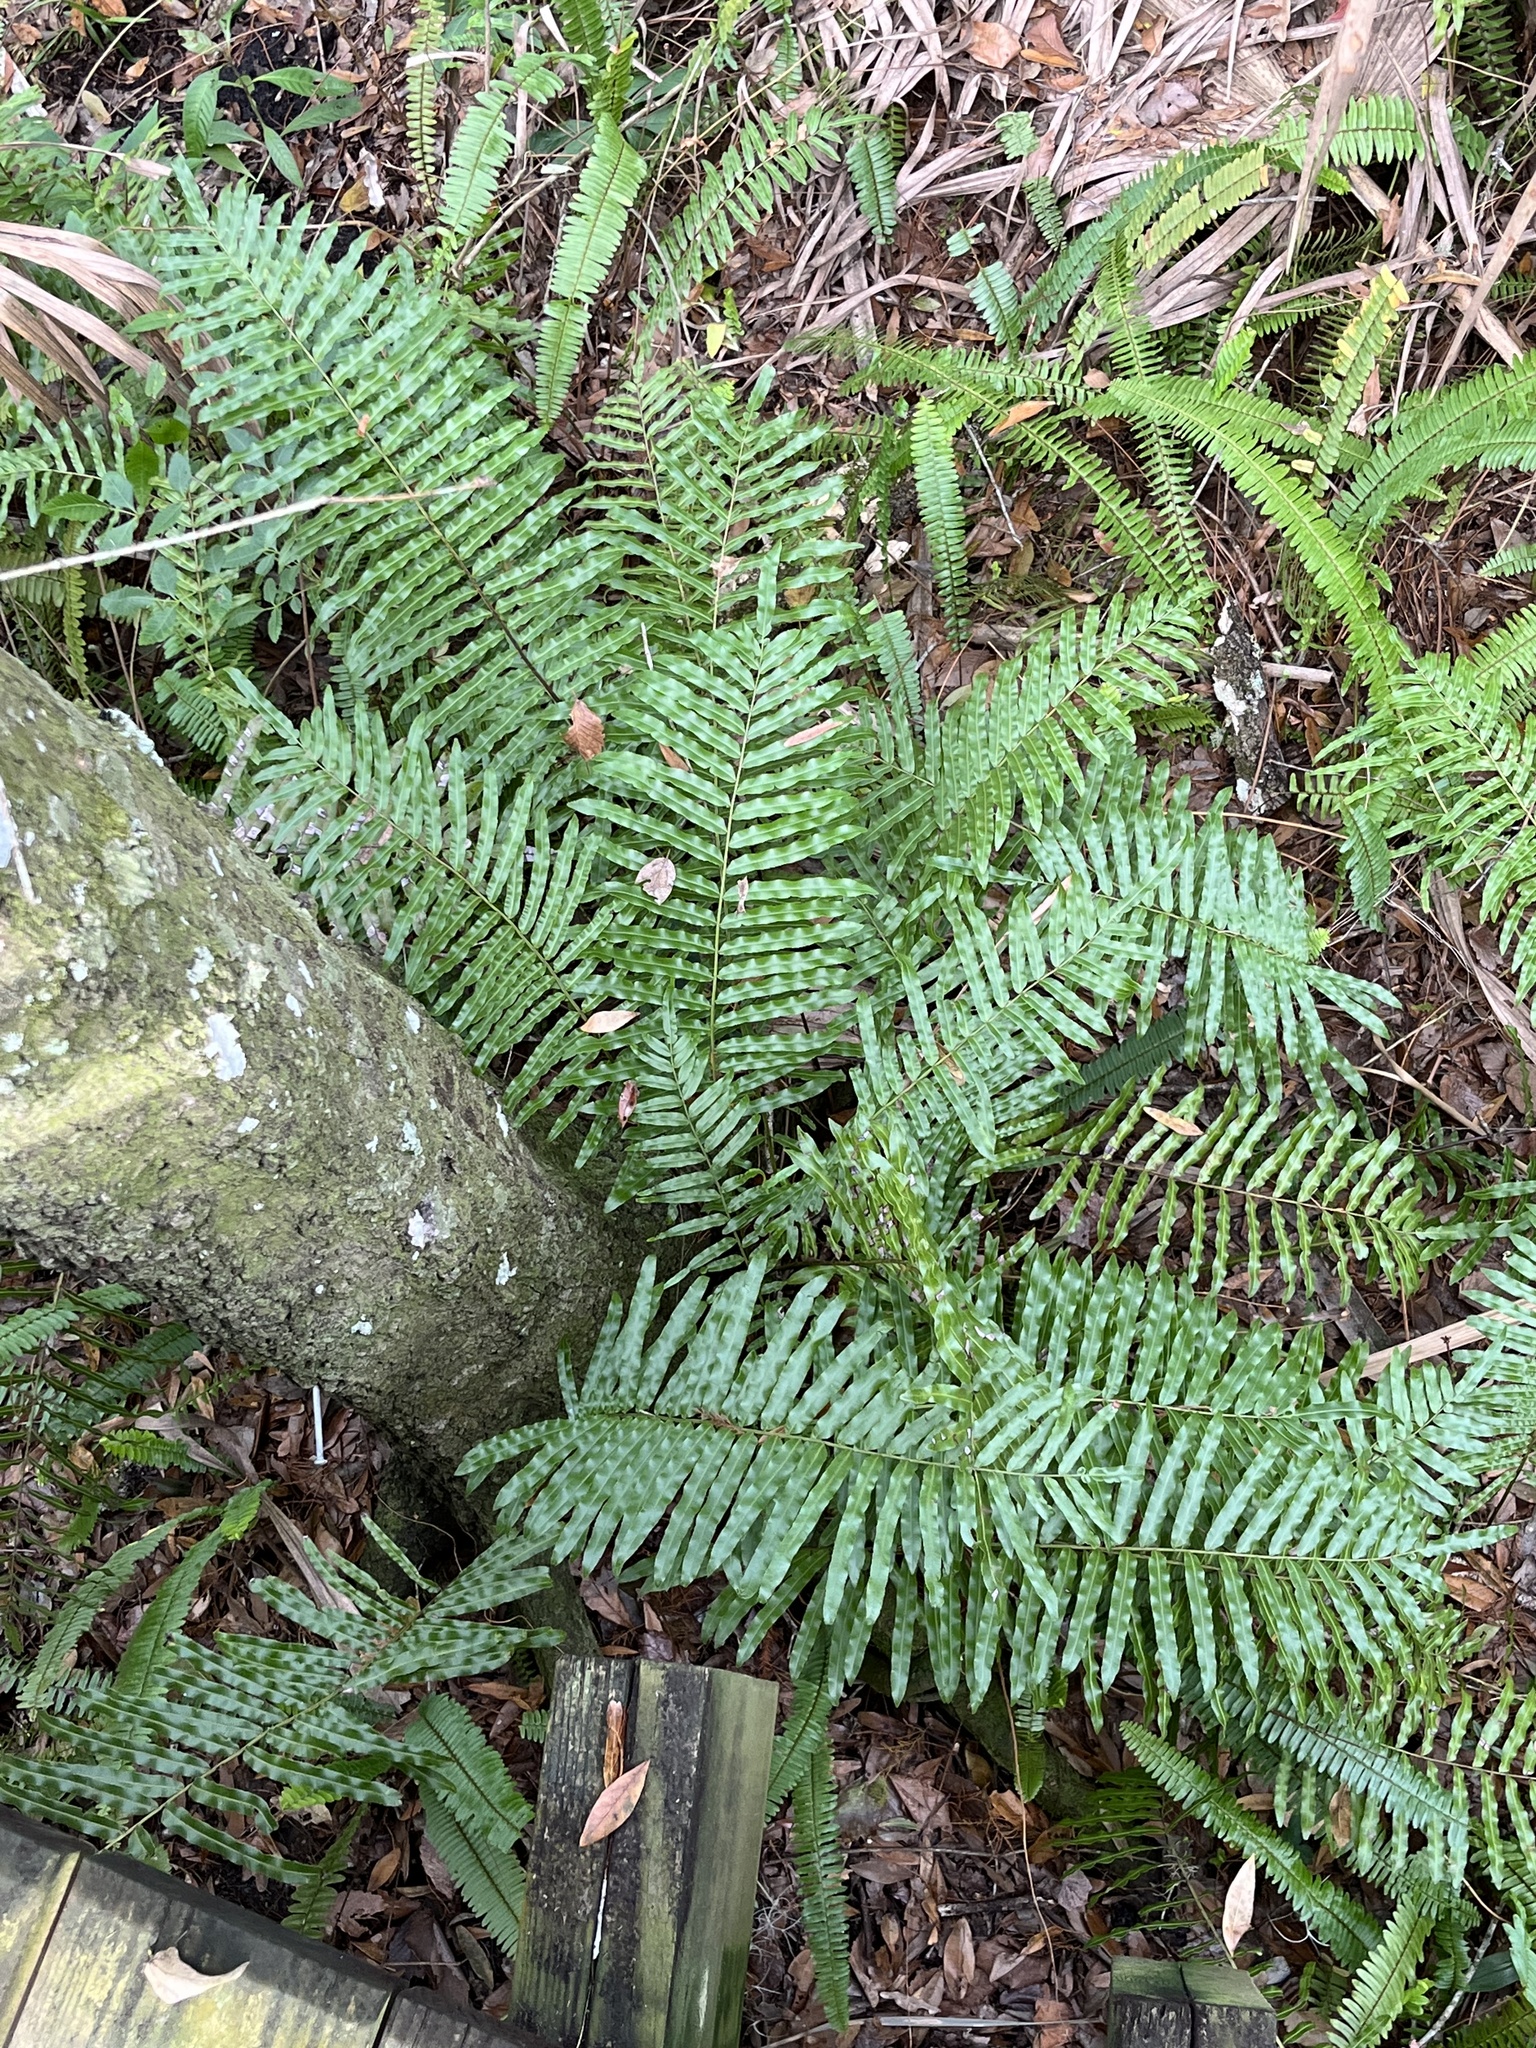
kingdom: Plantae
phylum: Tracheophyta
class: Polypodiopsida
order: Polypodiales
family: Blechnaceae
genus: Telmatoblechnum
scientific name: Telmatoblechnum serrulatum
